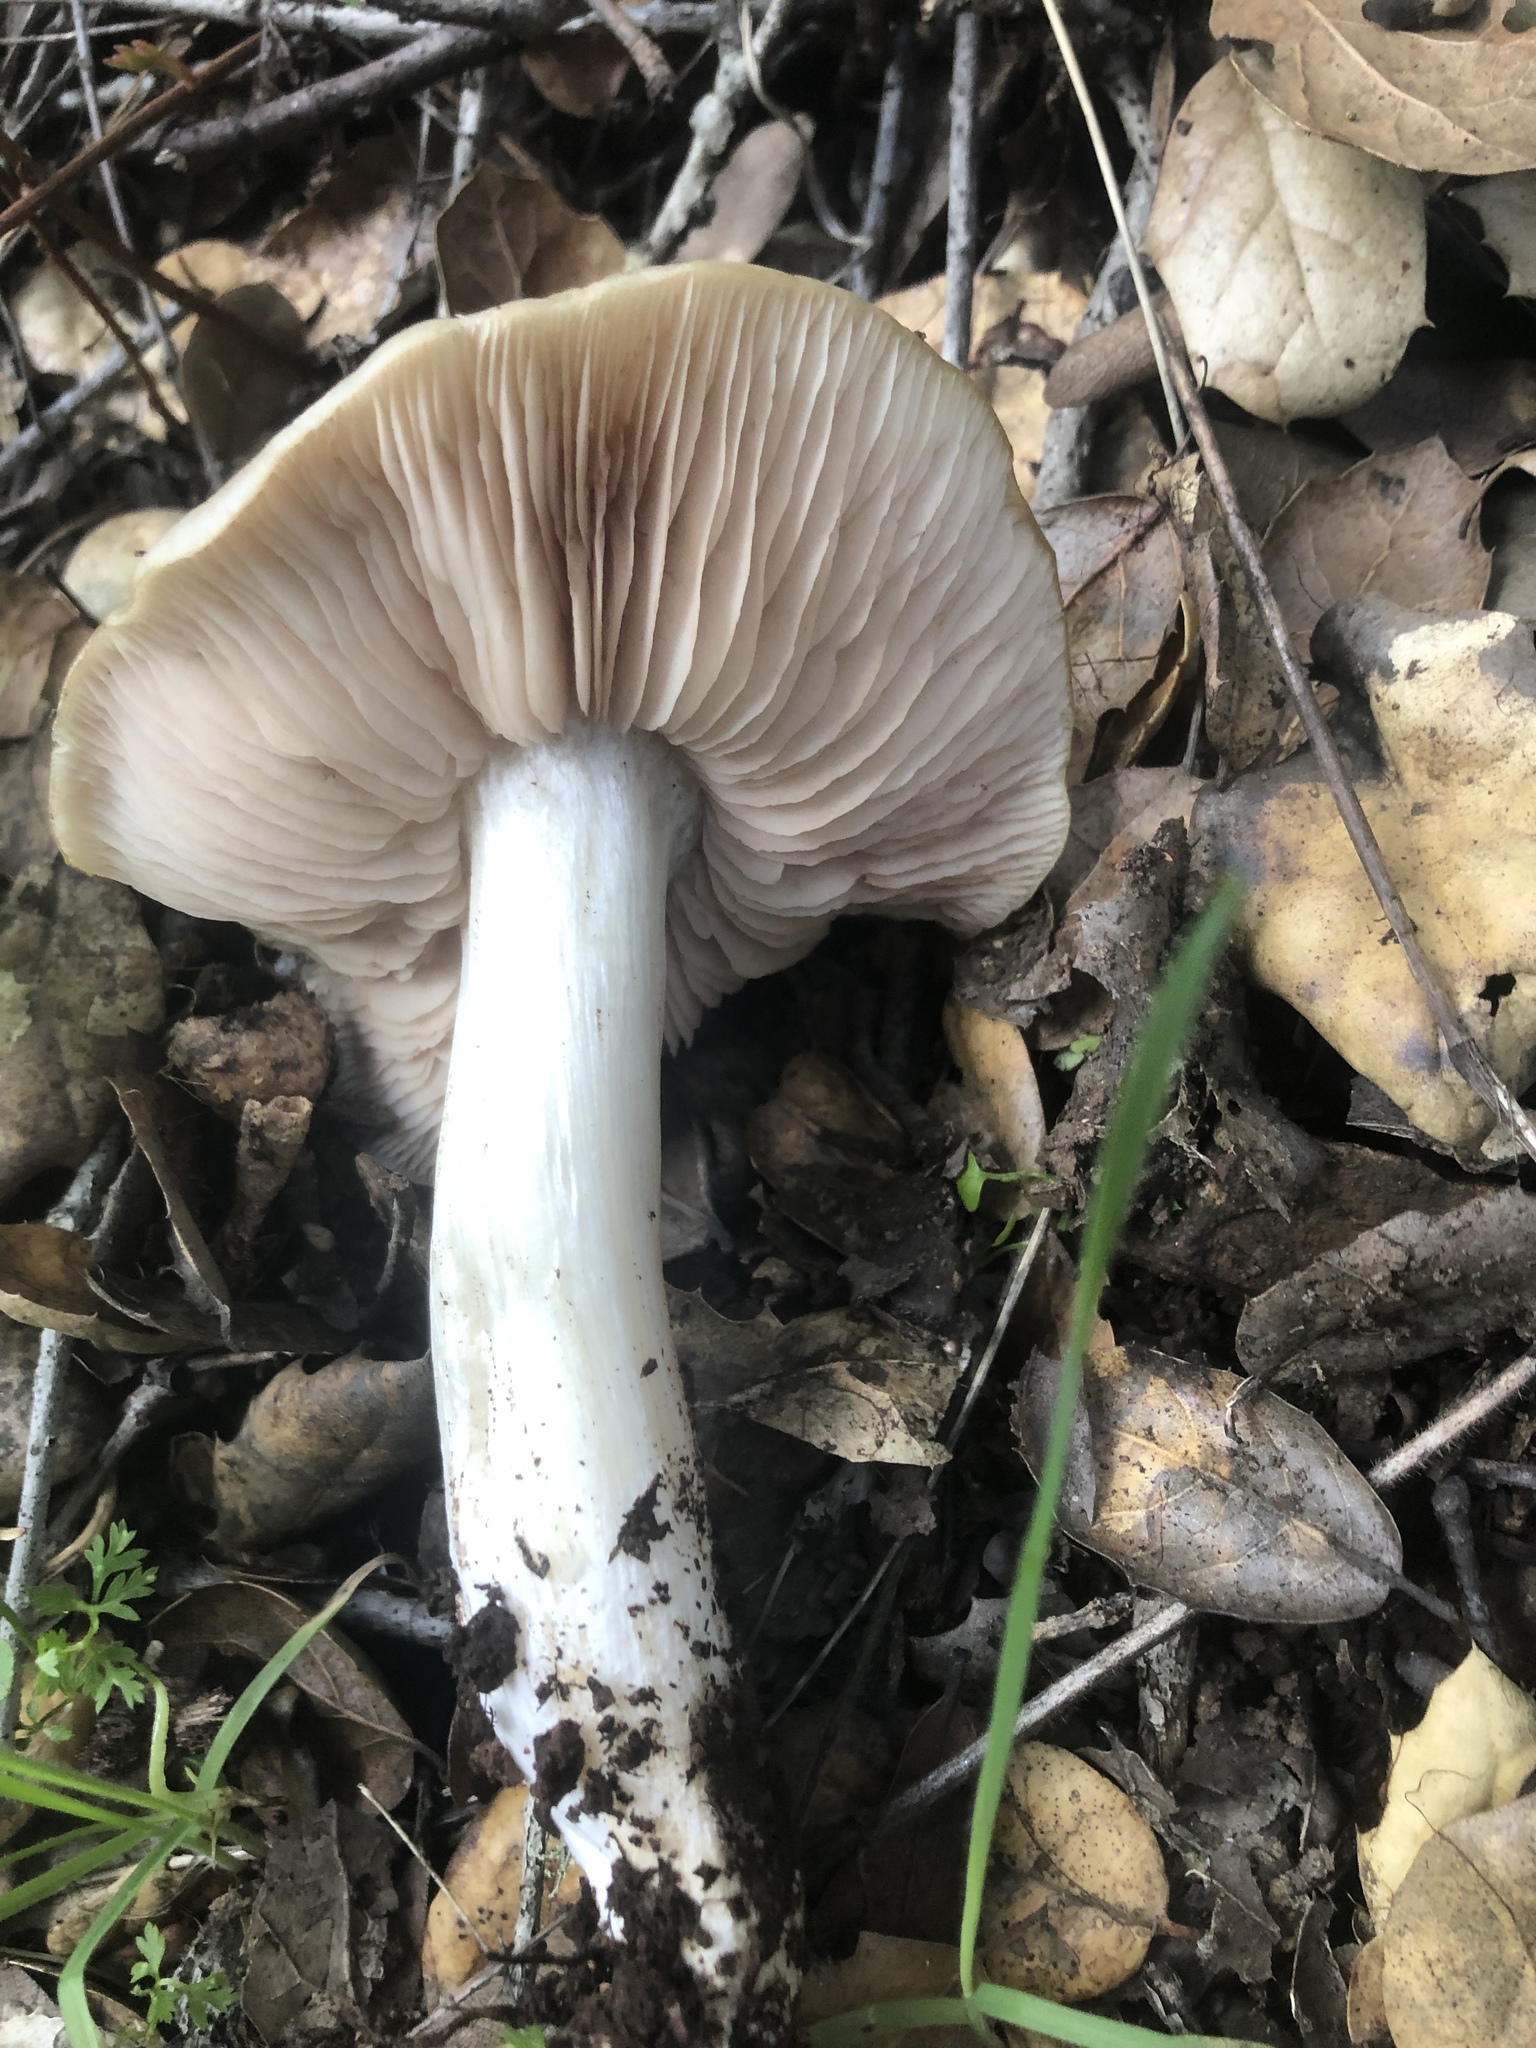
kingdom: Fungi
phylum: Basidiomycota
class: Agaricomycetes
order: Agaricales
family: Entolomataceae
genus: Entoloma
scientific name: Entoloma ferruginans
